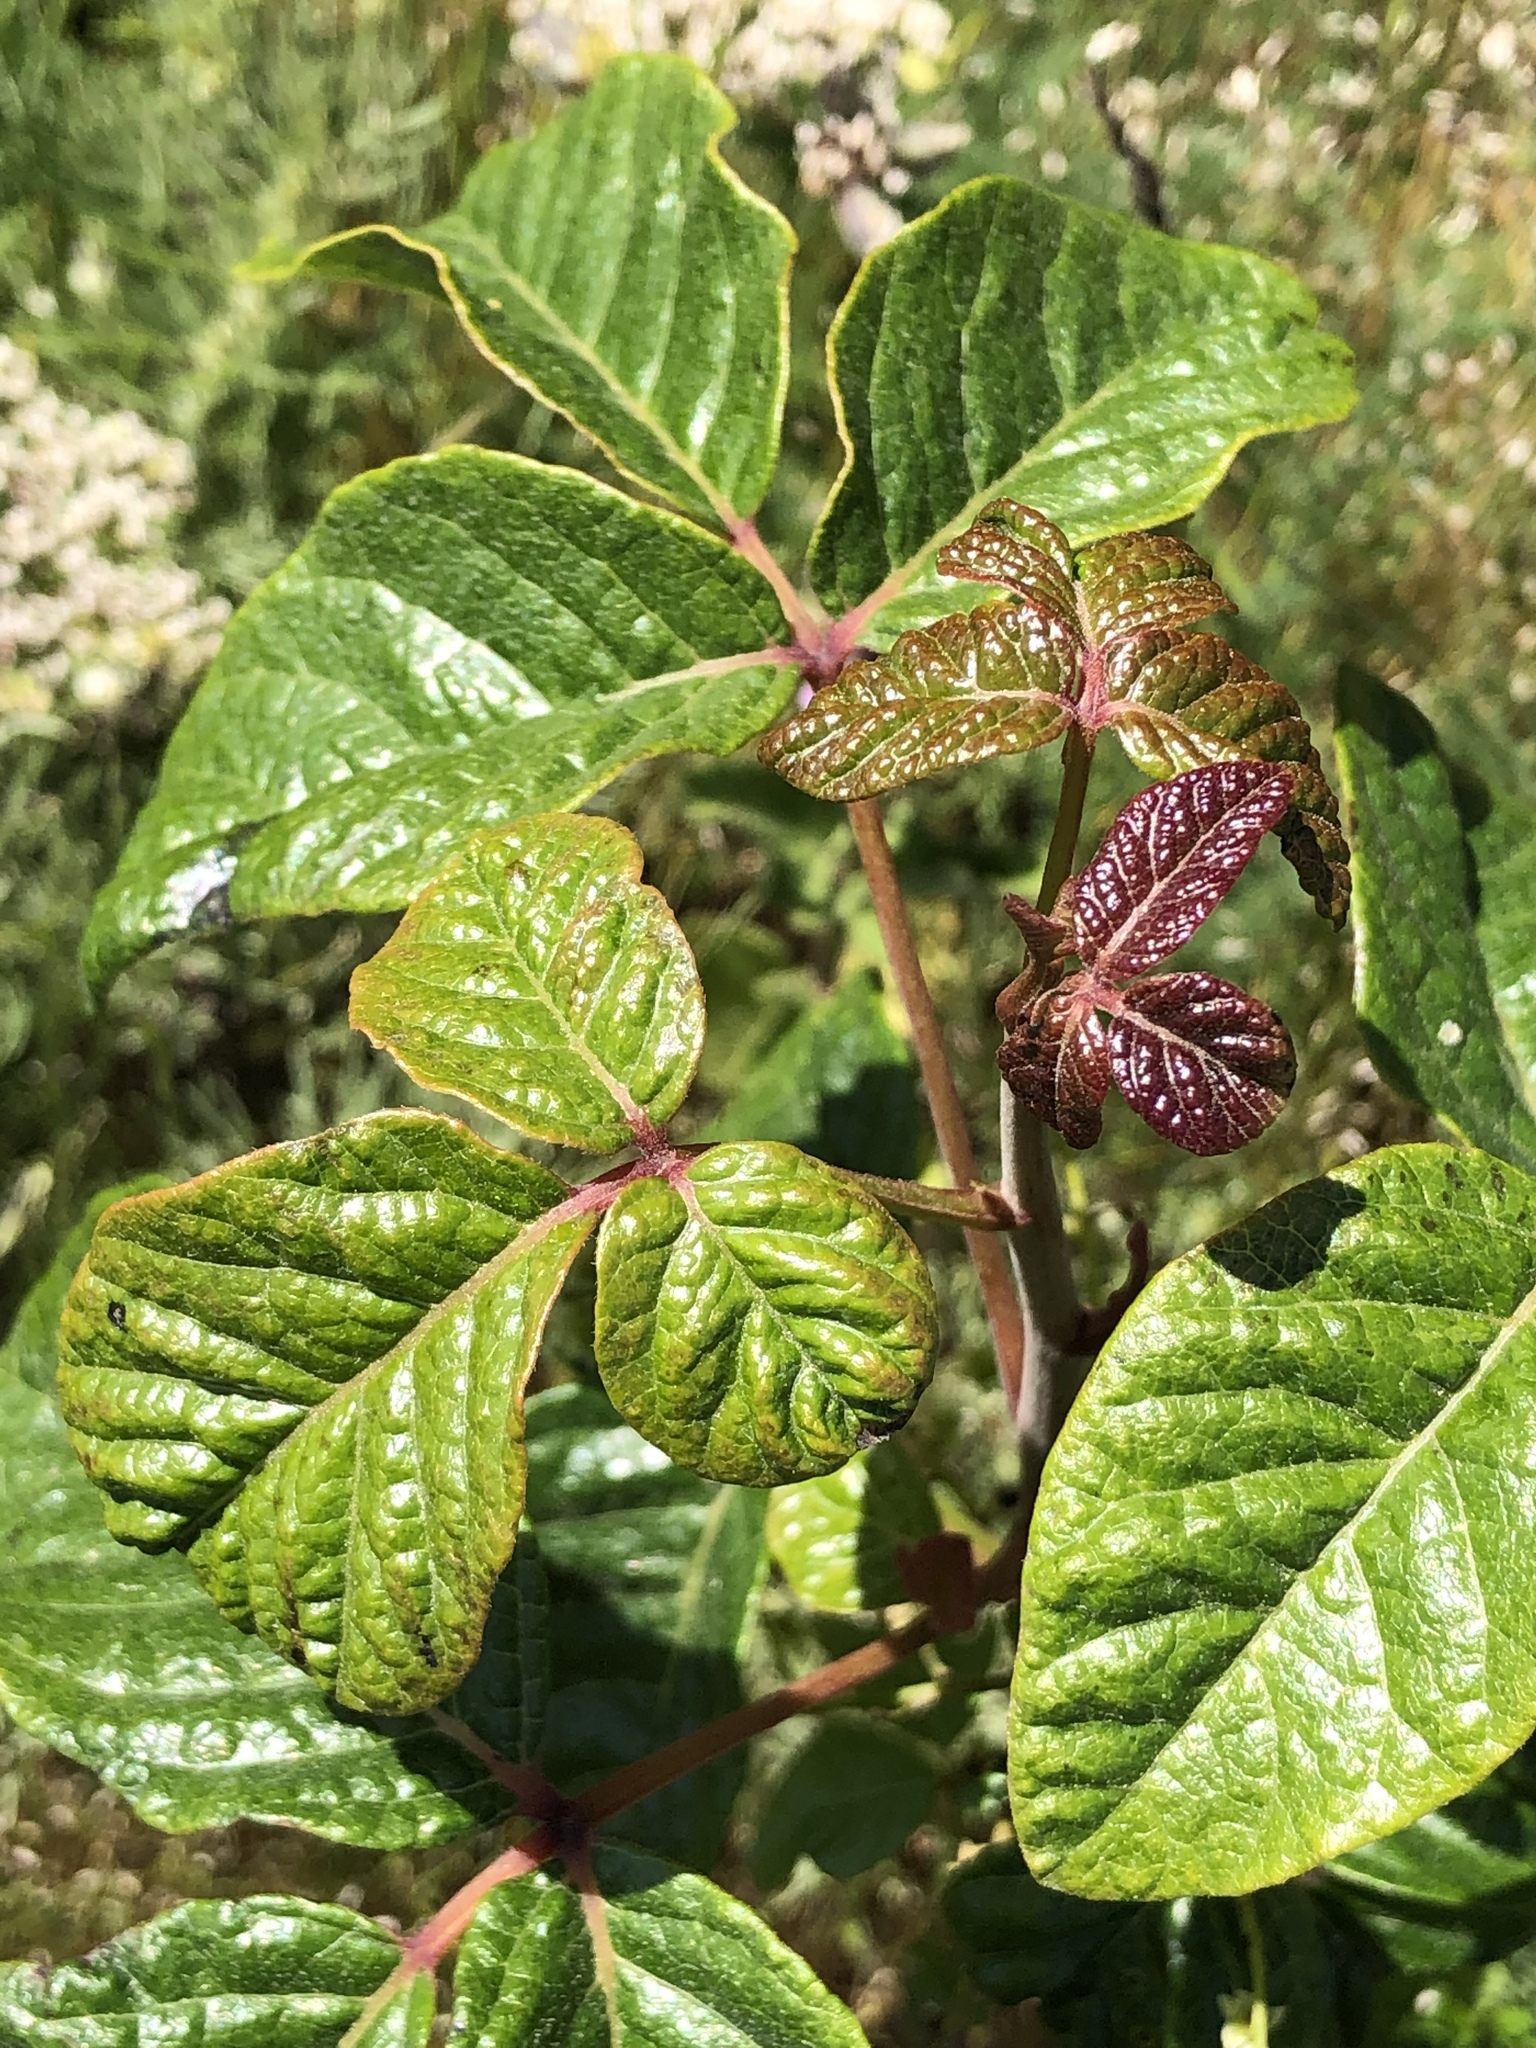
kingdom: Plantae
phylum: Tracheophyta
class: Magnoliopsida
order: Sapindales
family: Anacardiaceae
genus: Toxicodendron
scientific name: Toxicodendron diversilobum
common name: Pacific poison-oak
